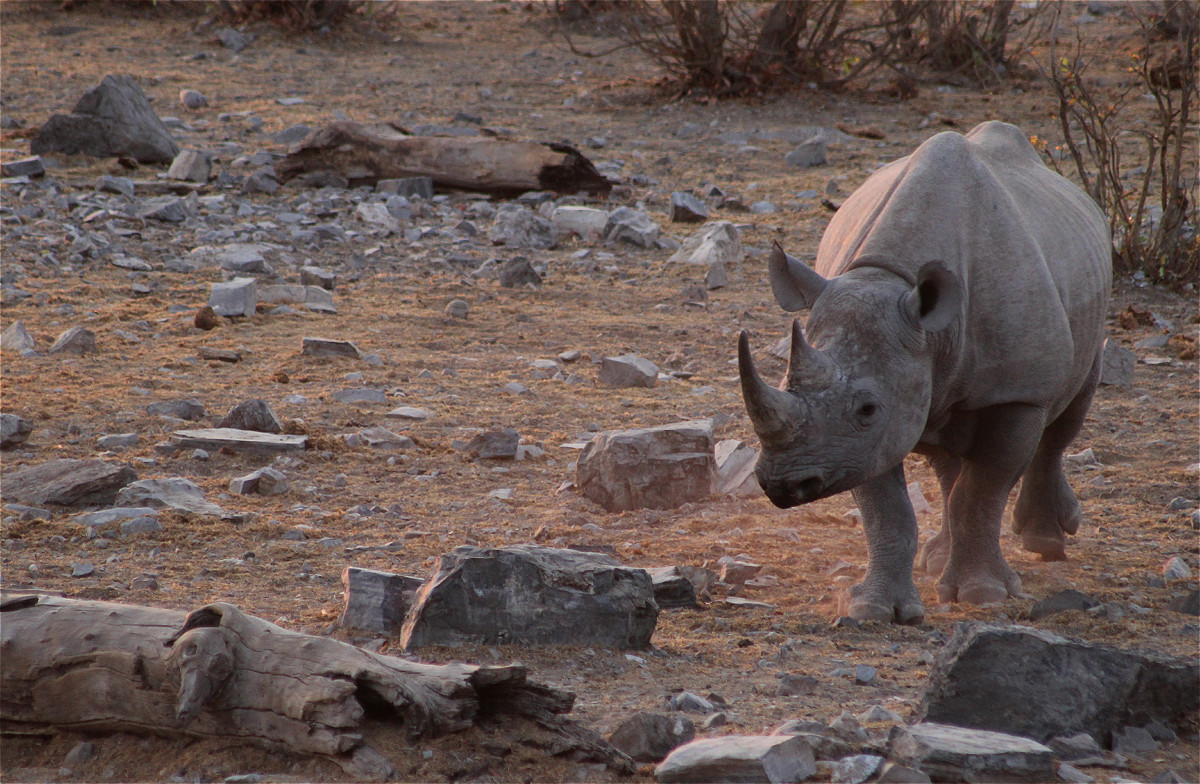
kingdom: Animalia
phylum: Chordata
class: Mammalia
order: Perissodactyla
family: Rhinocerotidae
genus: Diceros
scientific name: Diceros bicornis
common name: Black rhinoceros
